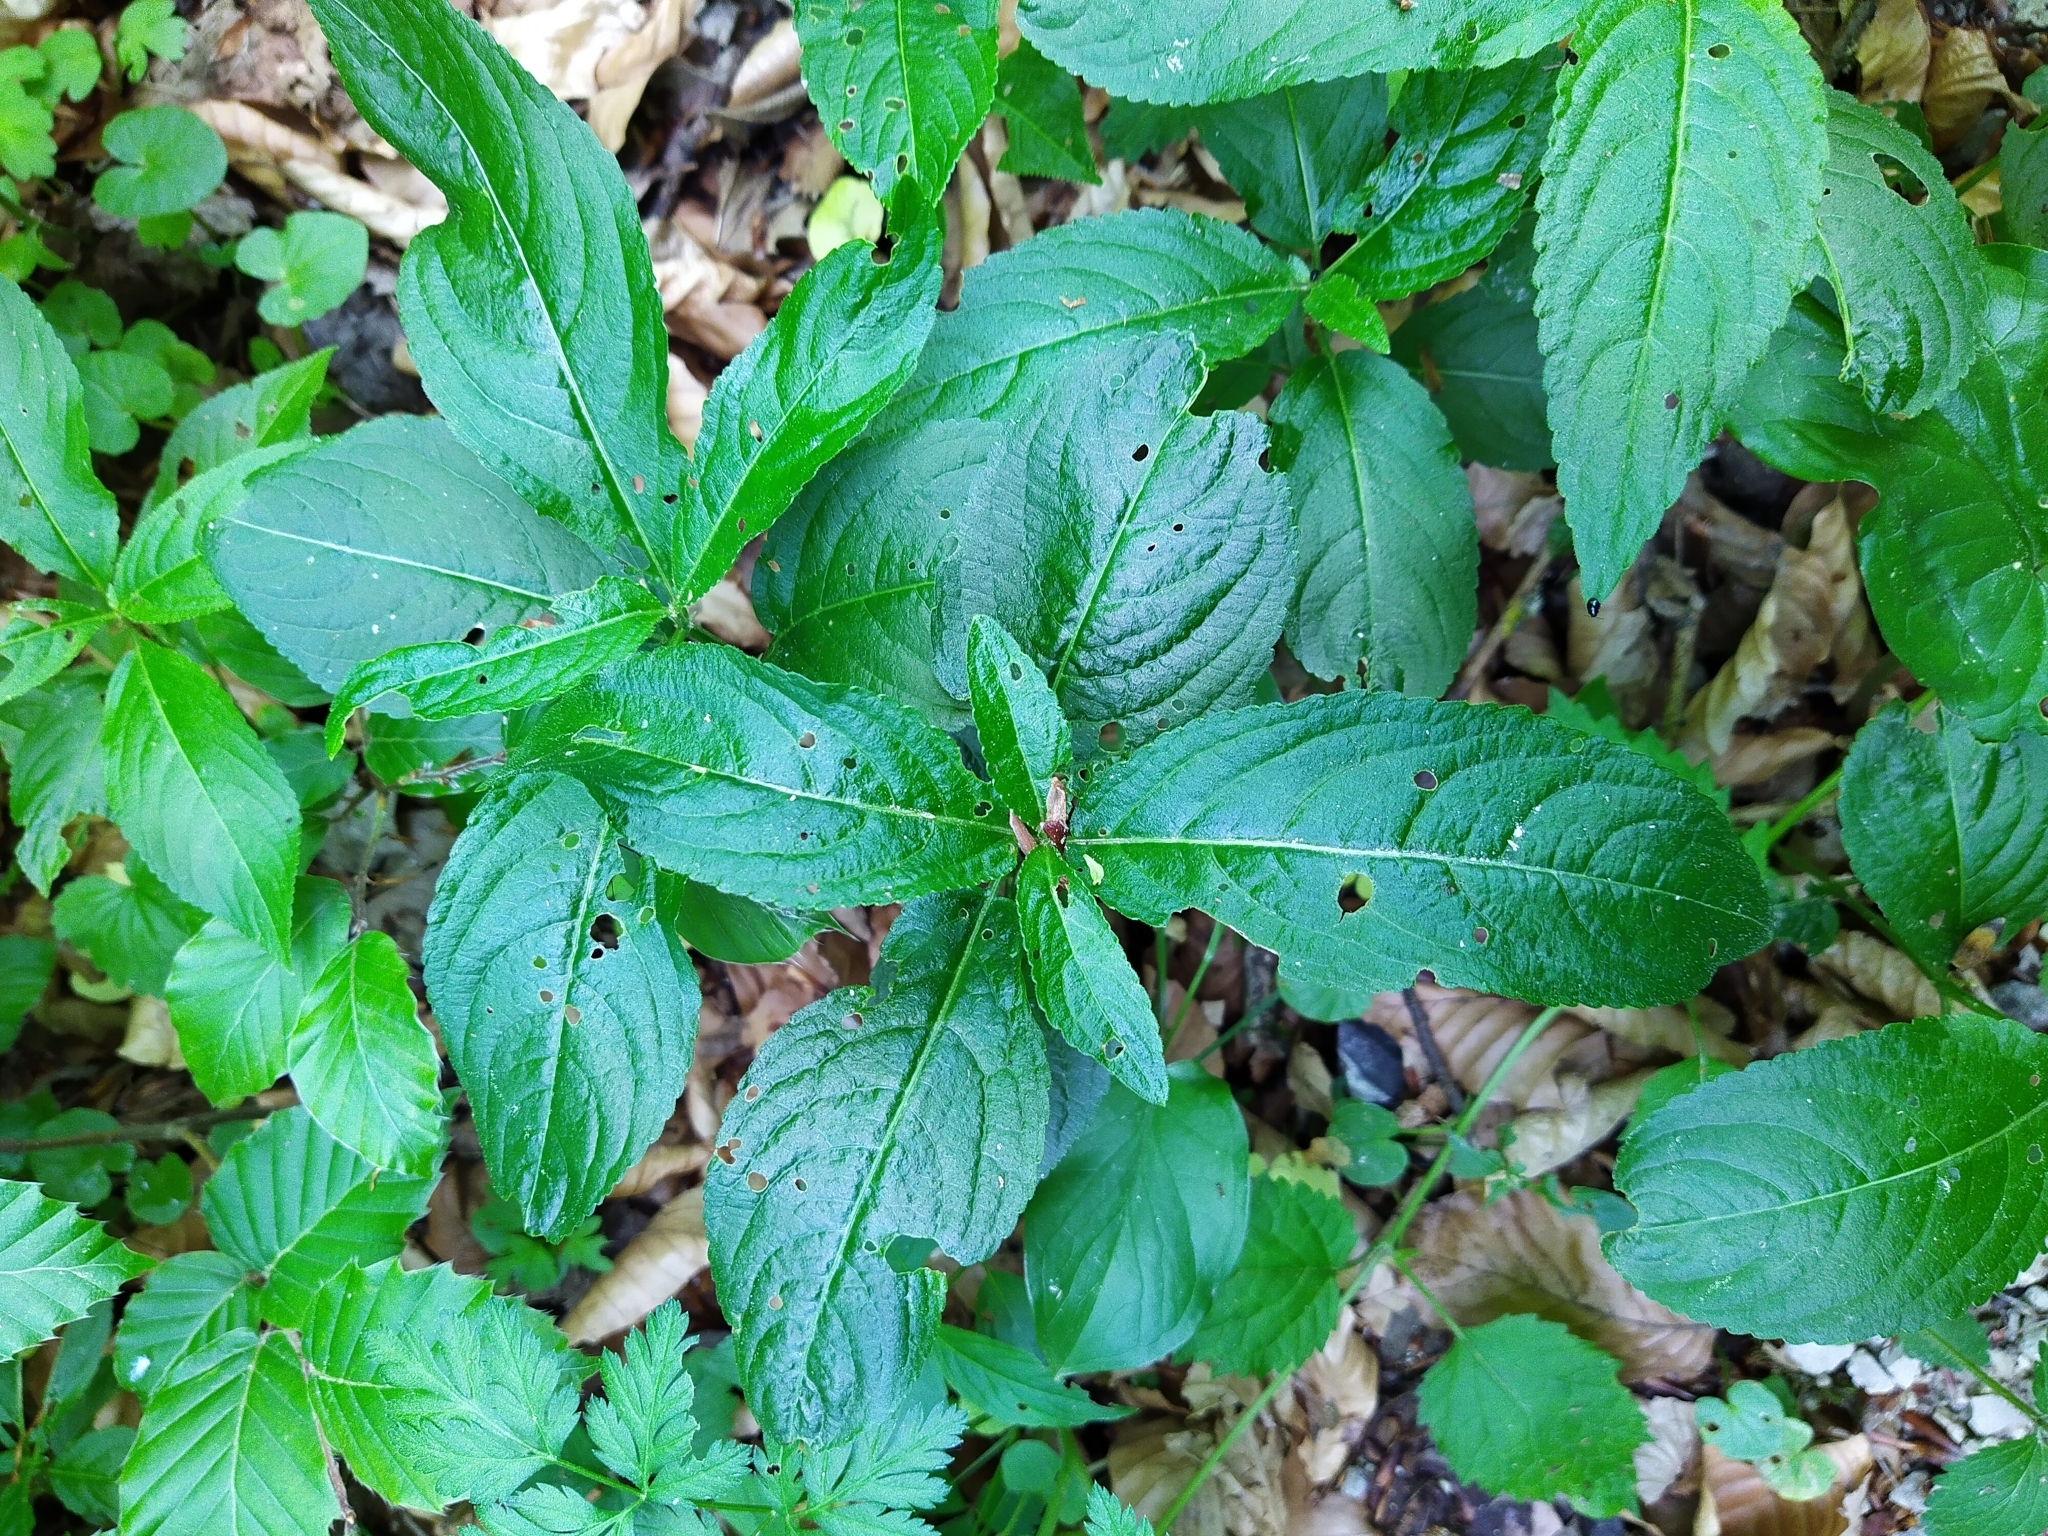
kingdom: Plantae
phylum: Tracheophyta
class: Magnoliopsida
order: Malpighiales
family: Euphorbiaceae
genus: Mercurialis
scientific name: Mercurialis perennis
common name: Dog mercury
